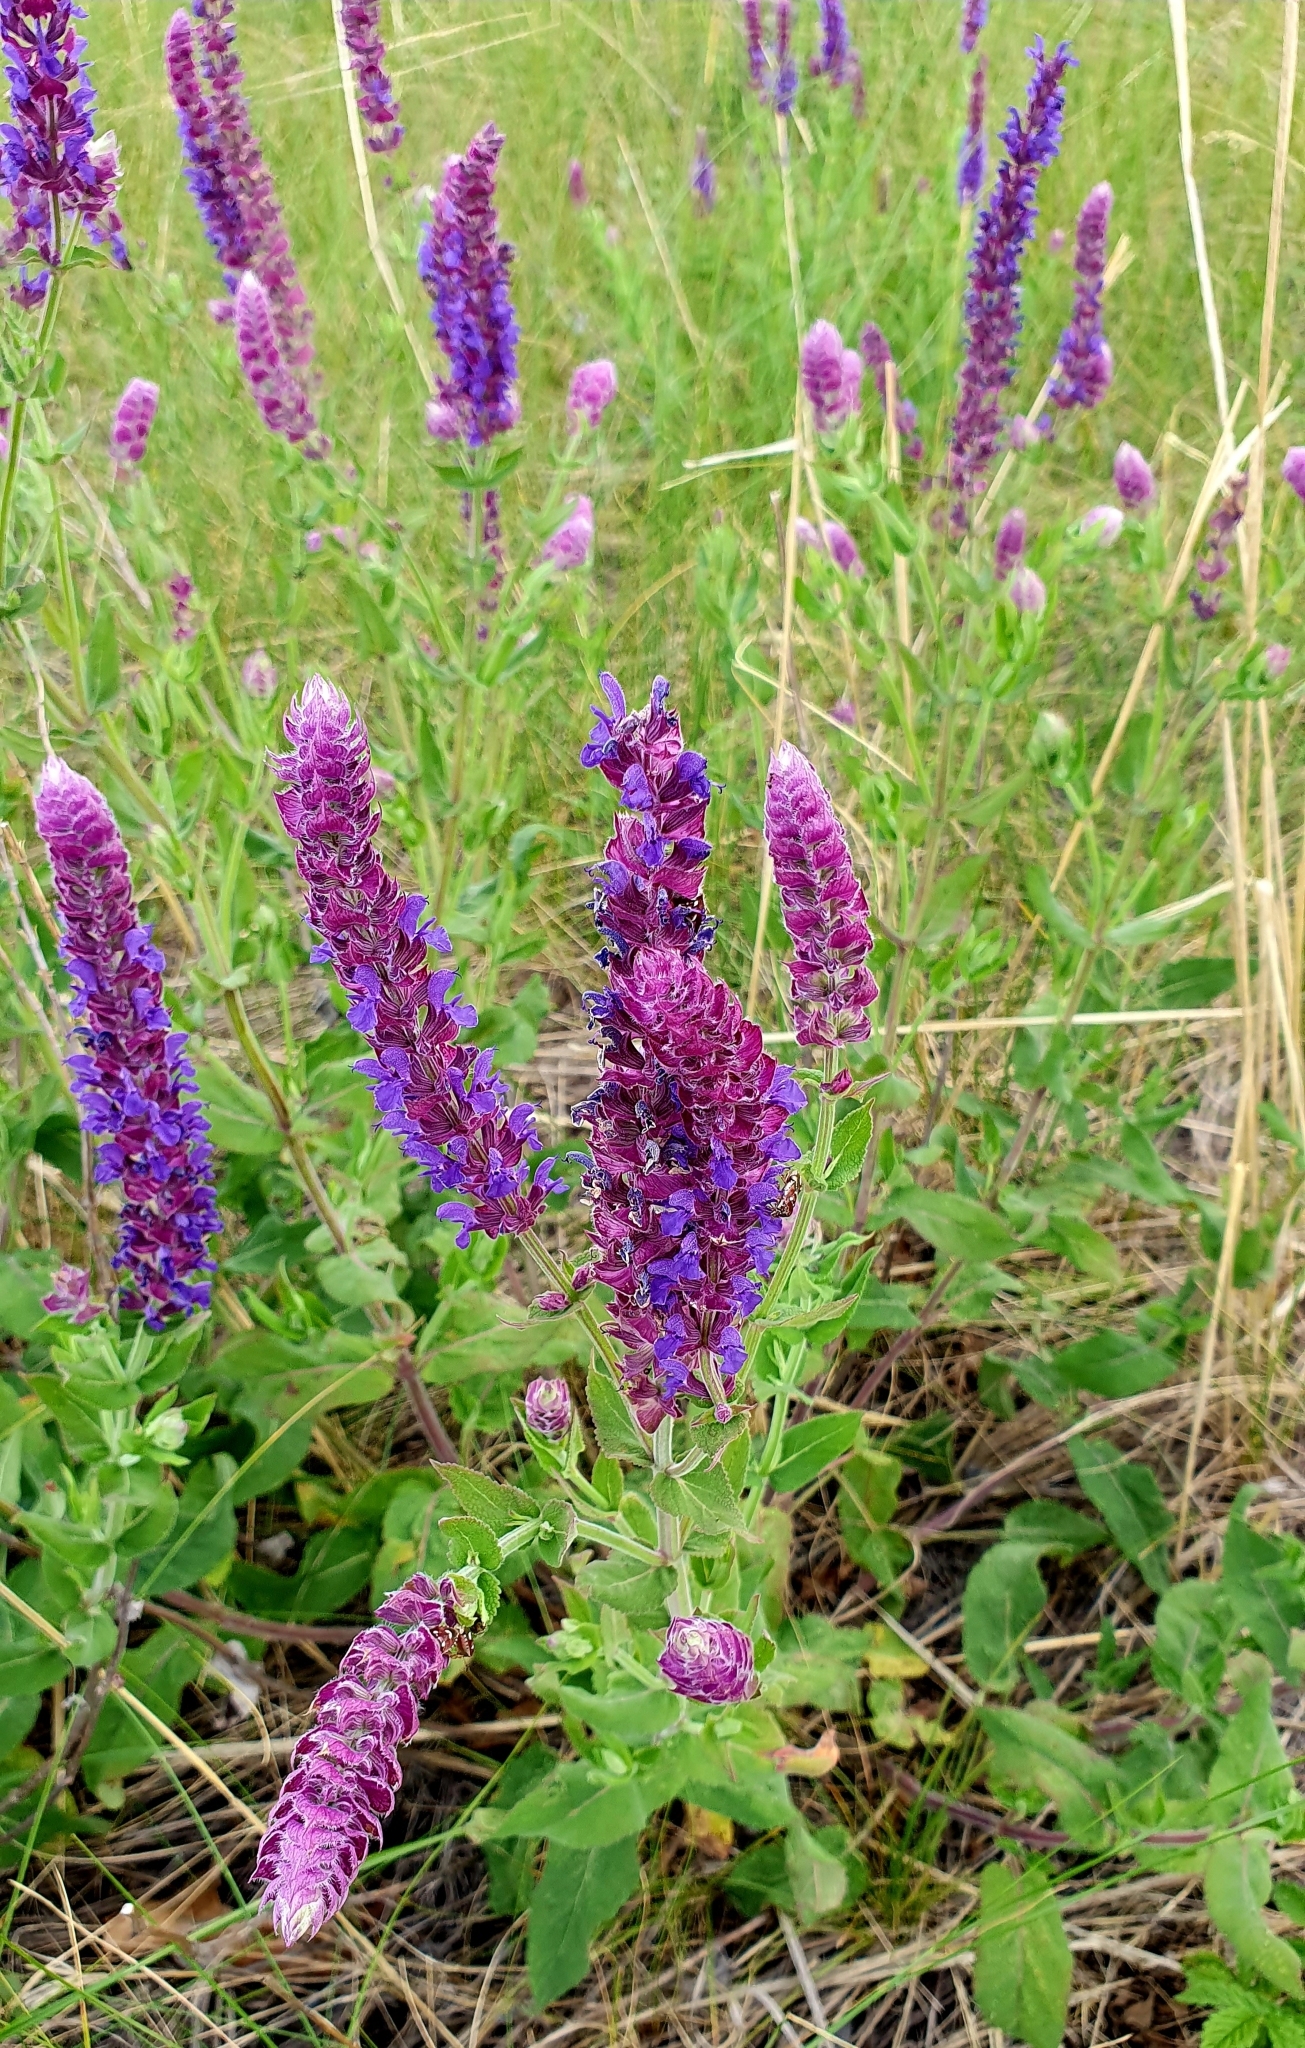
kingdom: Plantae
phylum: Tracheophyta
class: Magnoliopsida
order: Lamiales
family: Lamiaceae
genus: Salvia
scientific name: Salvia nemorosa
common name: Balkan clary
